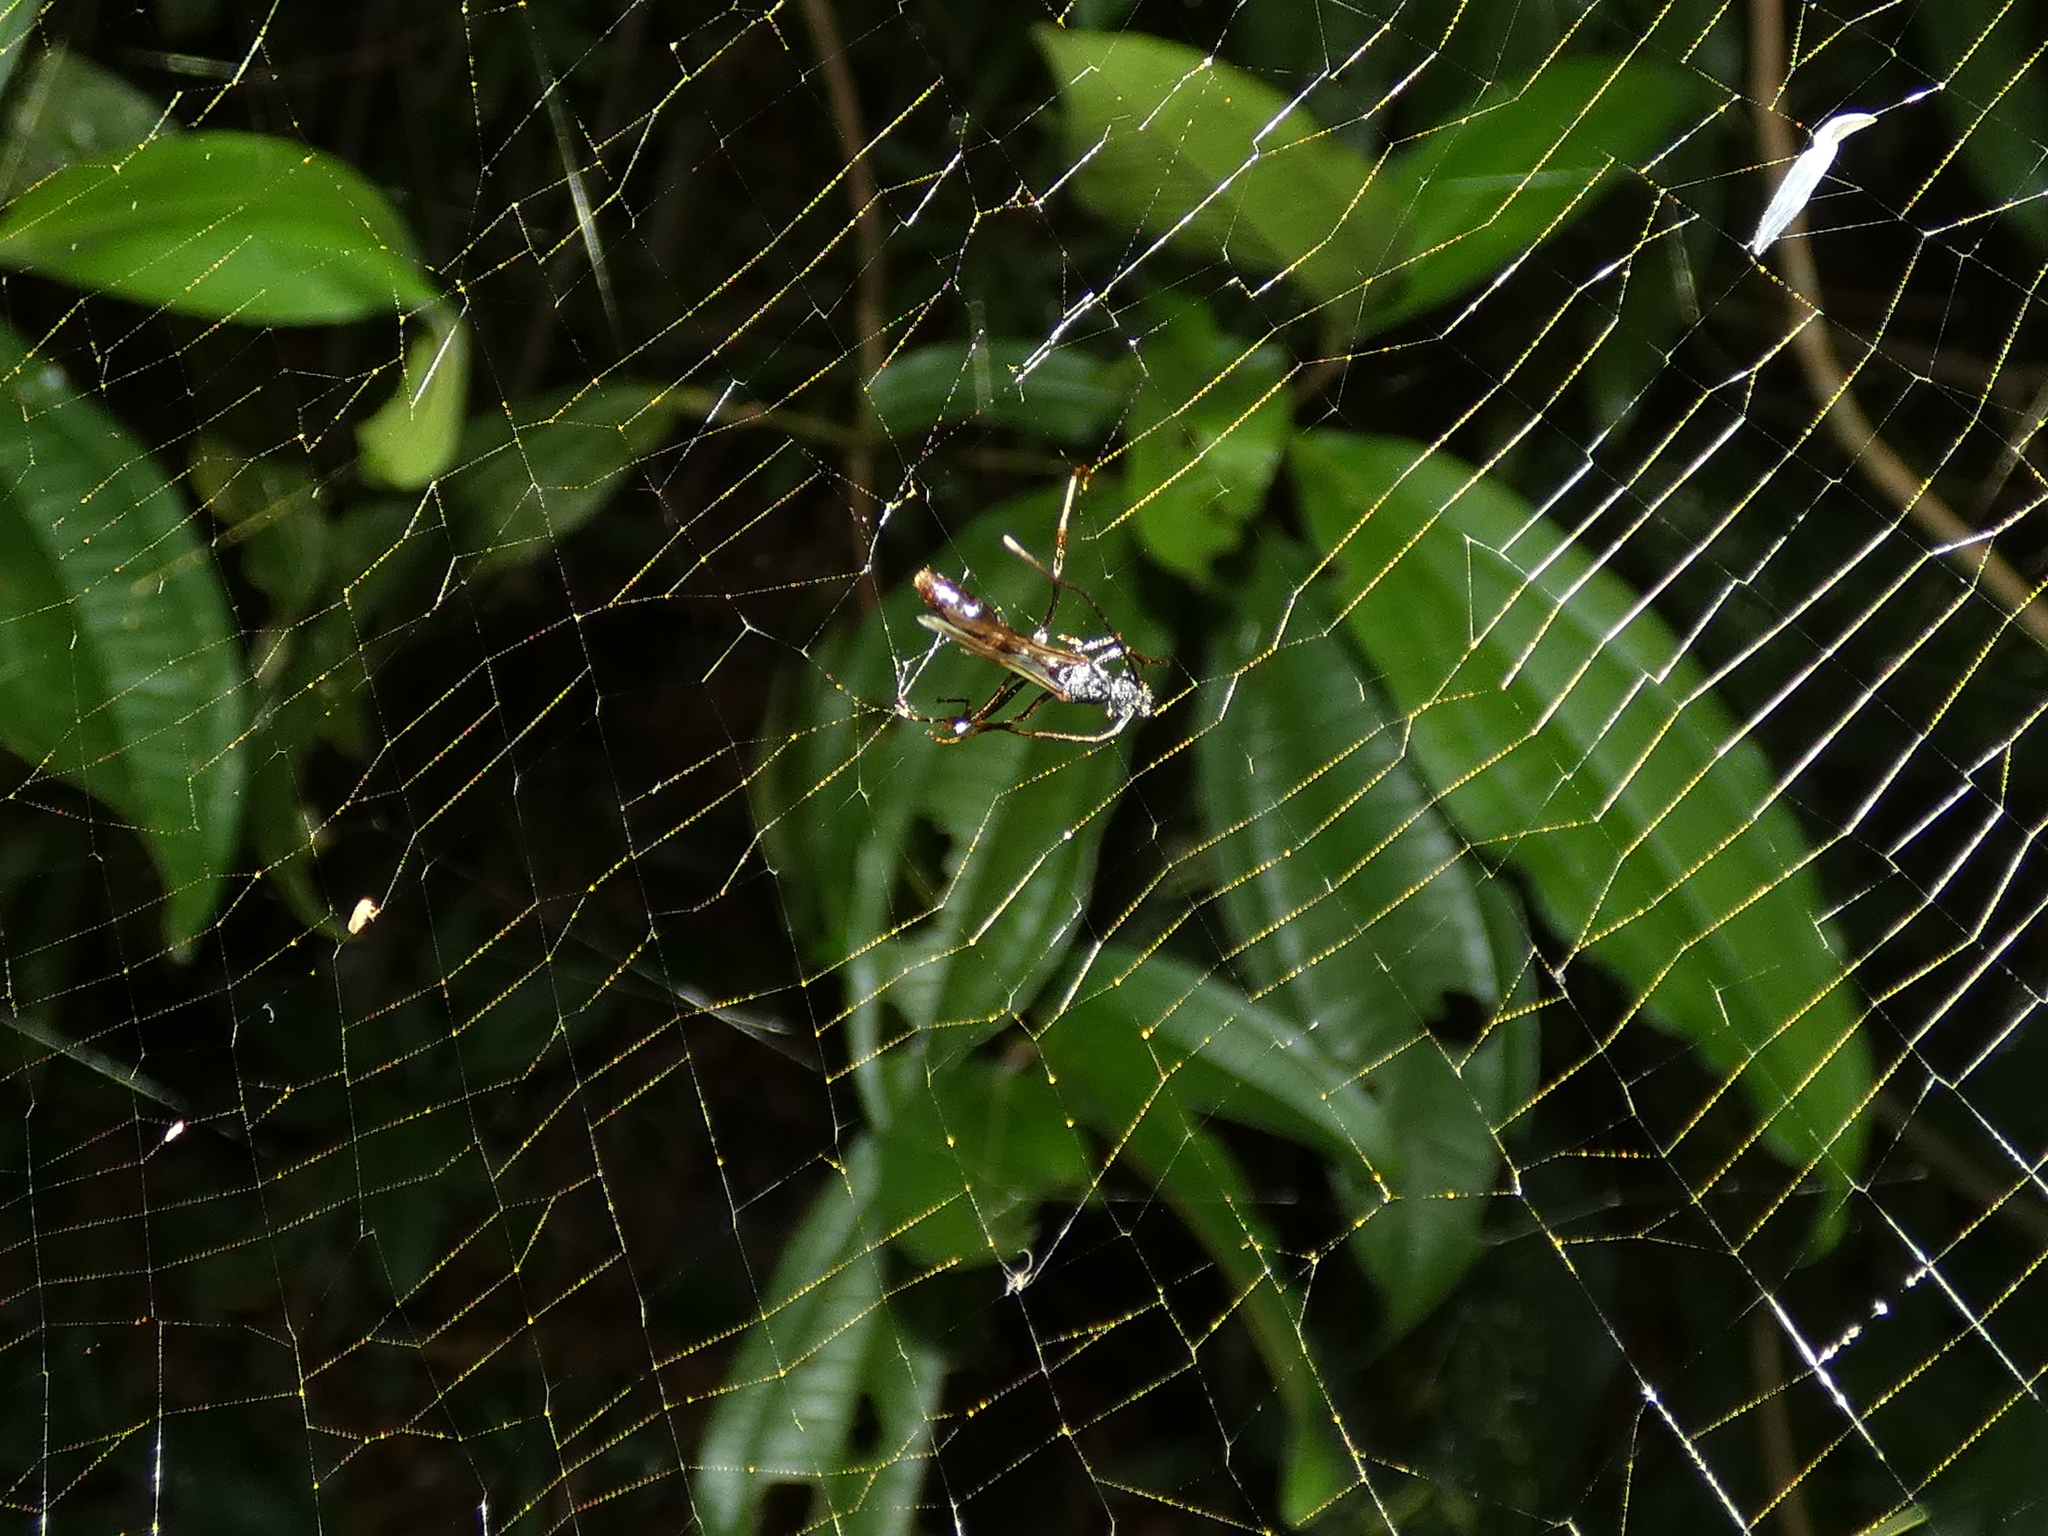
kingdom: Animalia
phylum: Arthropoda
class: Arachnida
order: Araneae
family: Araneidae
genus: Trichonephila
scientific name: Trichonephila clavipes
